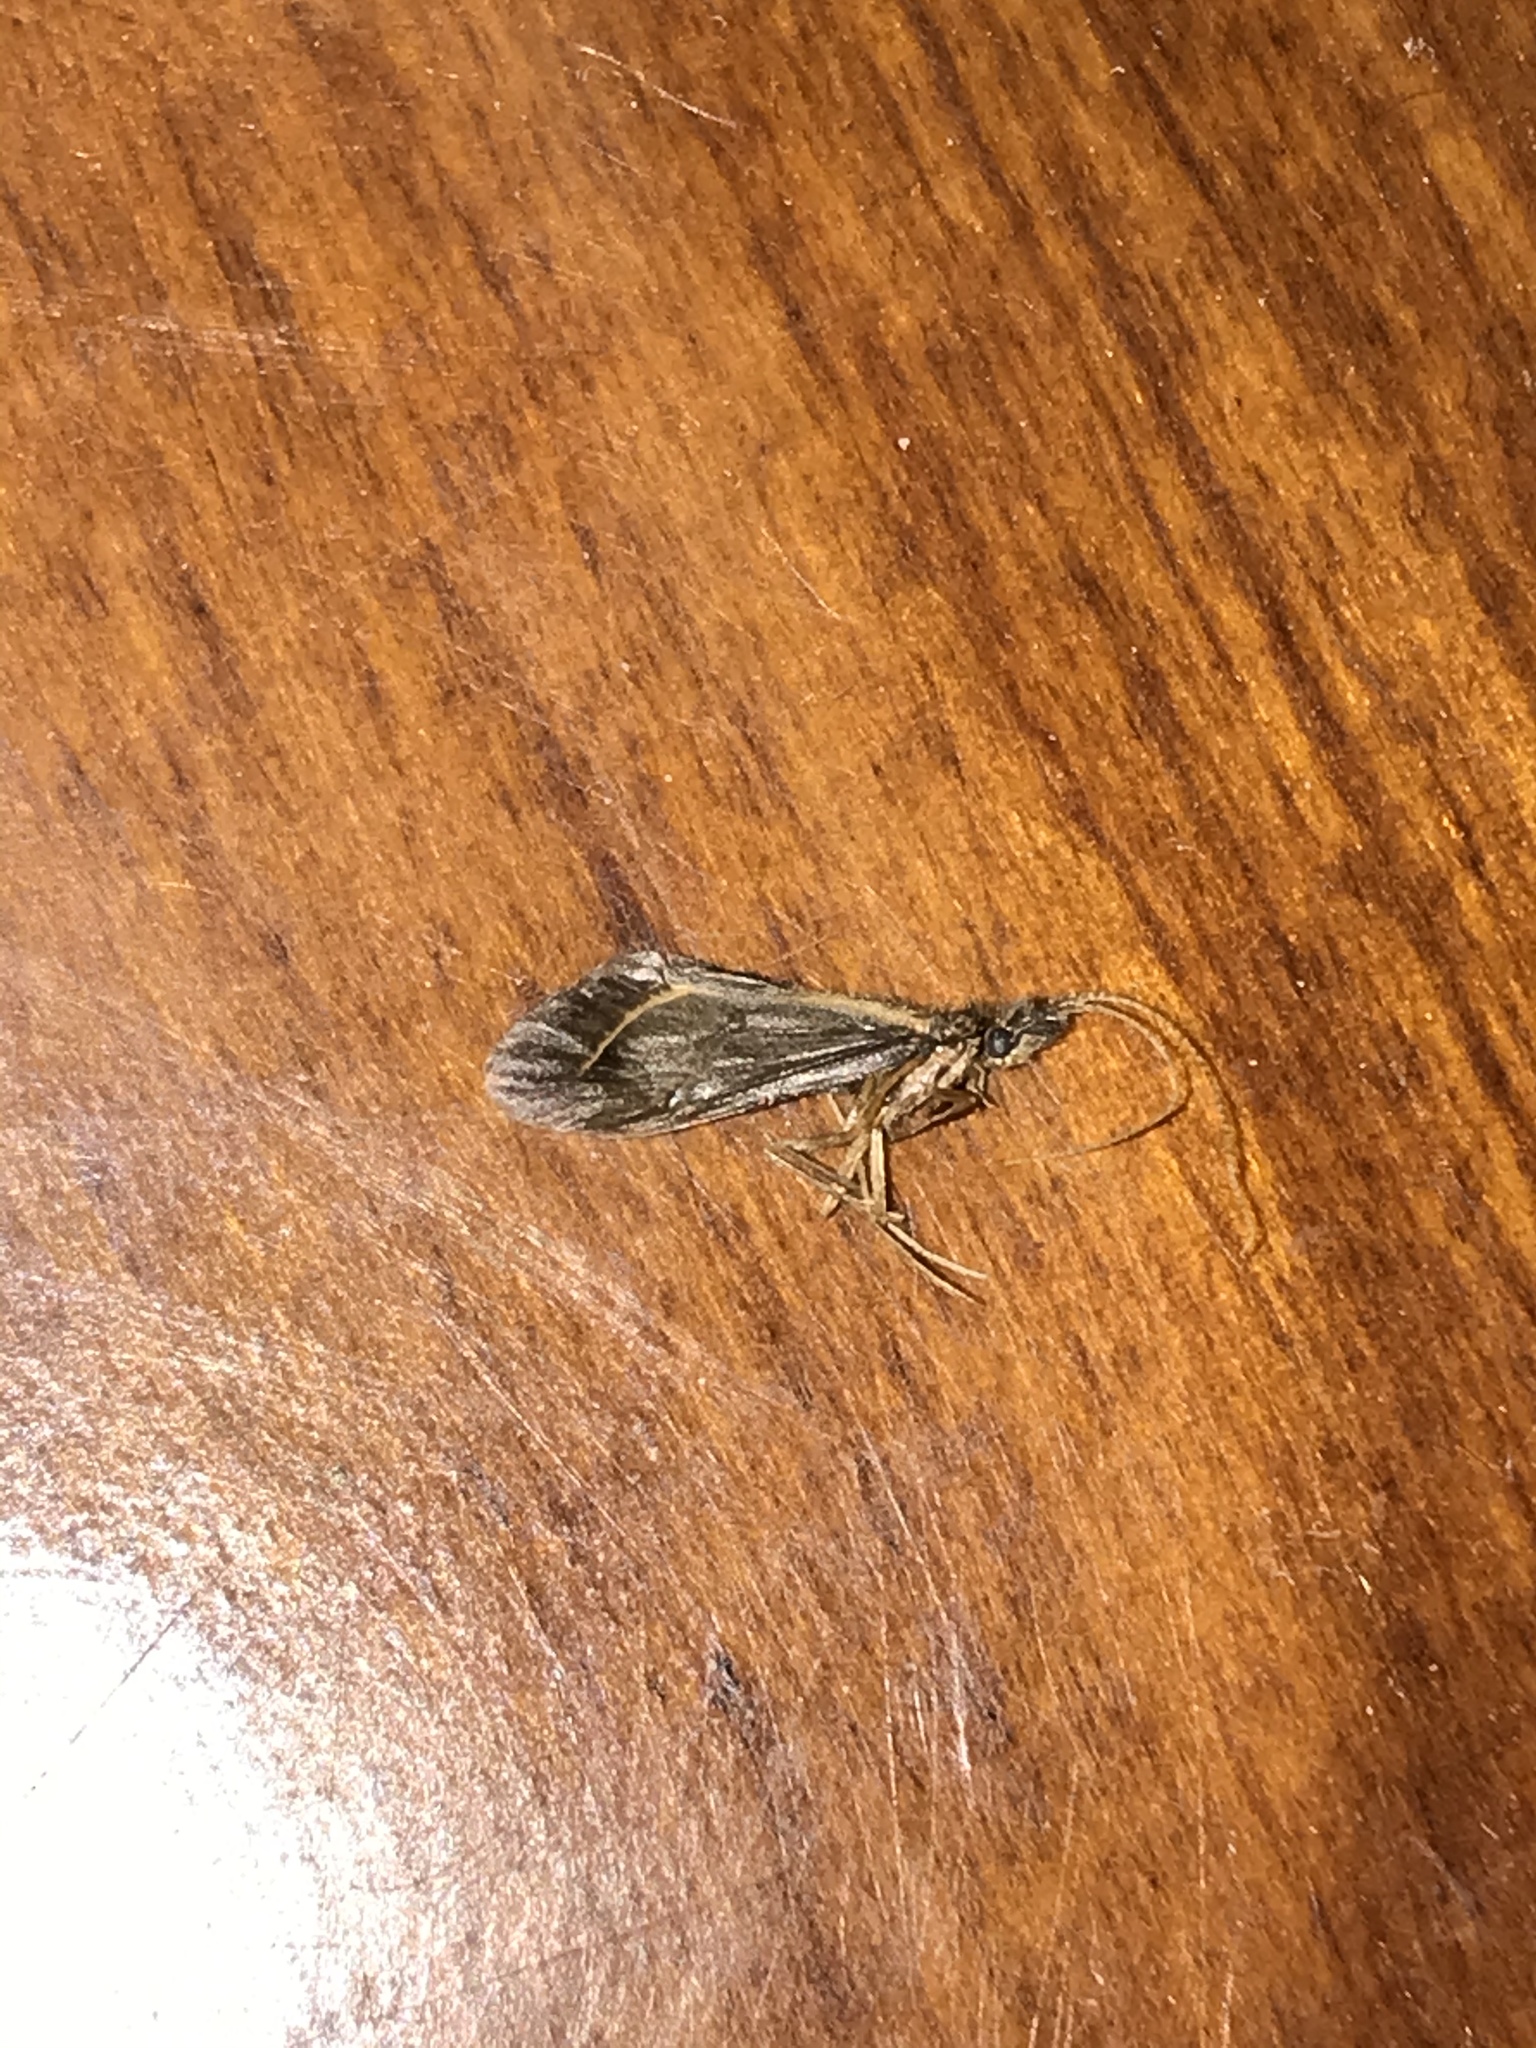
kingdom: Animalia
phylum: Arthropoda
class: Insecta
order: Trichoptera
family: Conoesucidae
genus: Olinga
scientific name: Olinga feredayi
